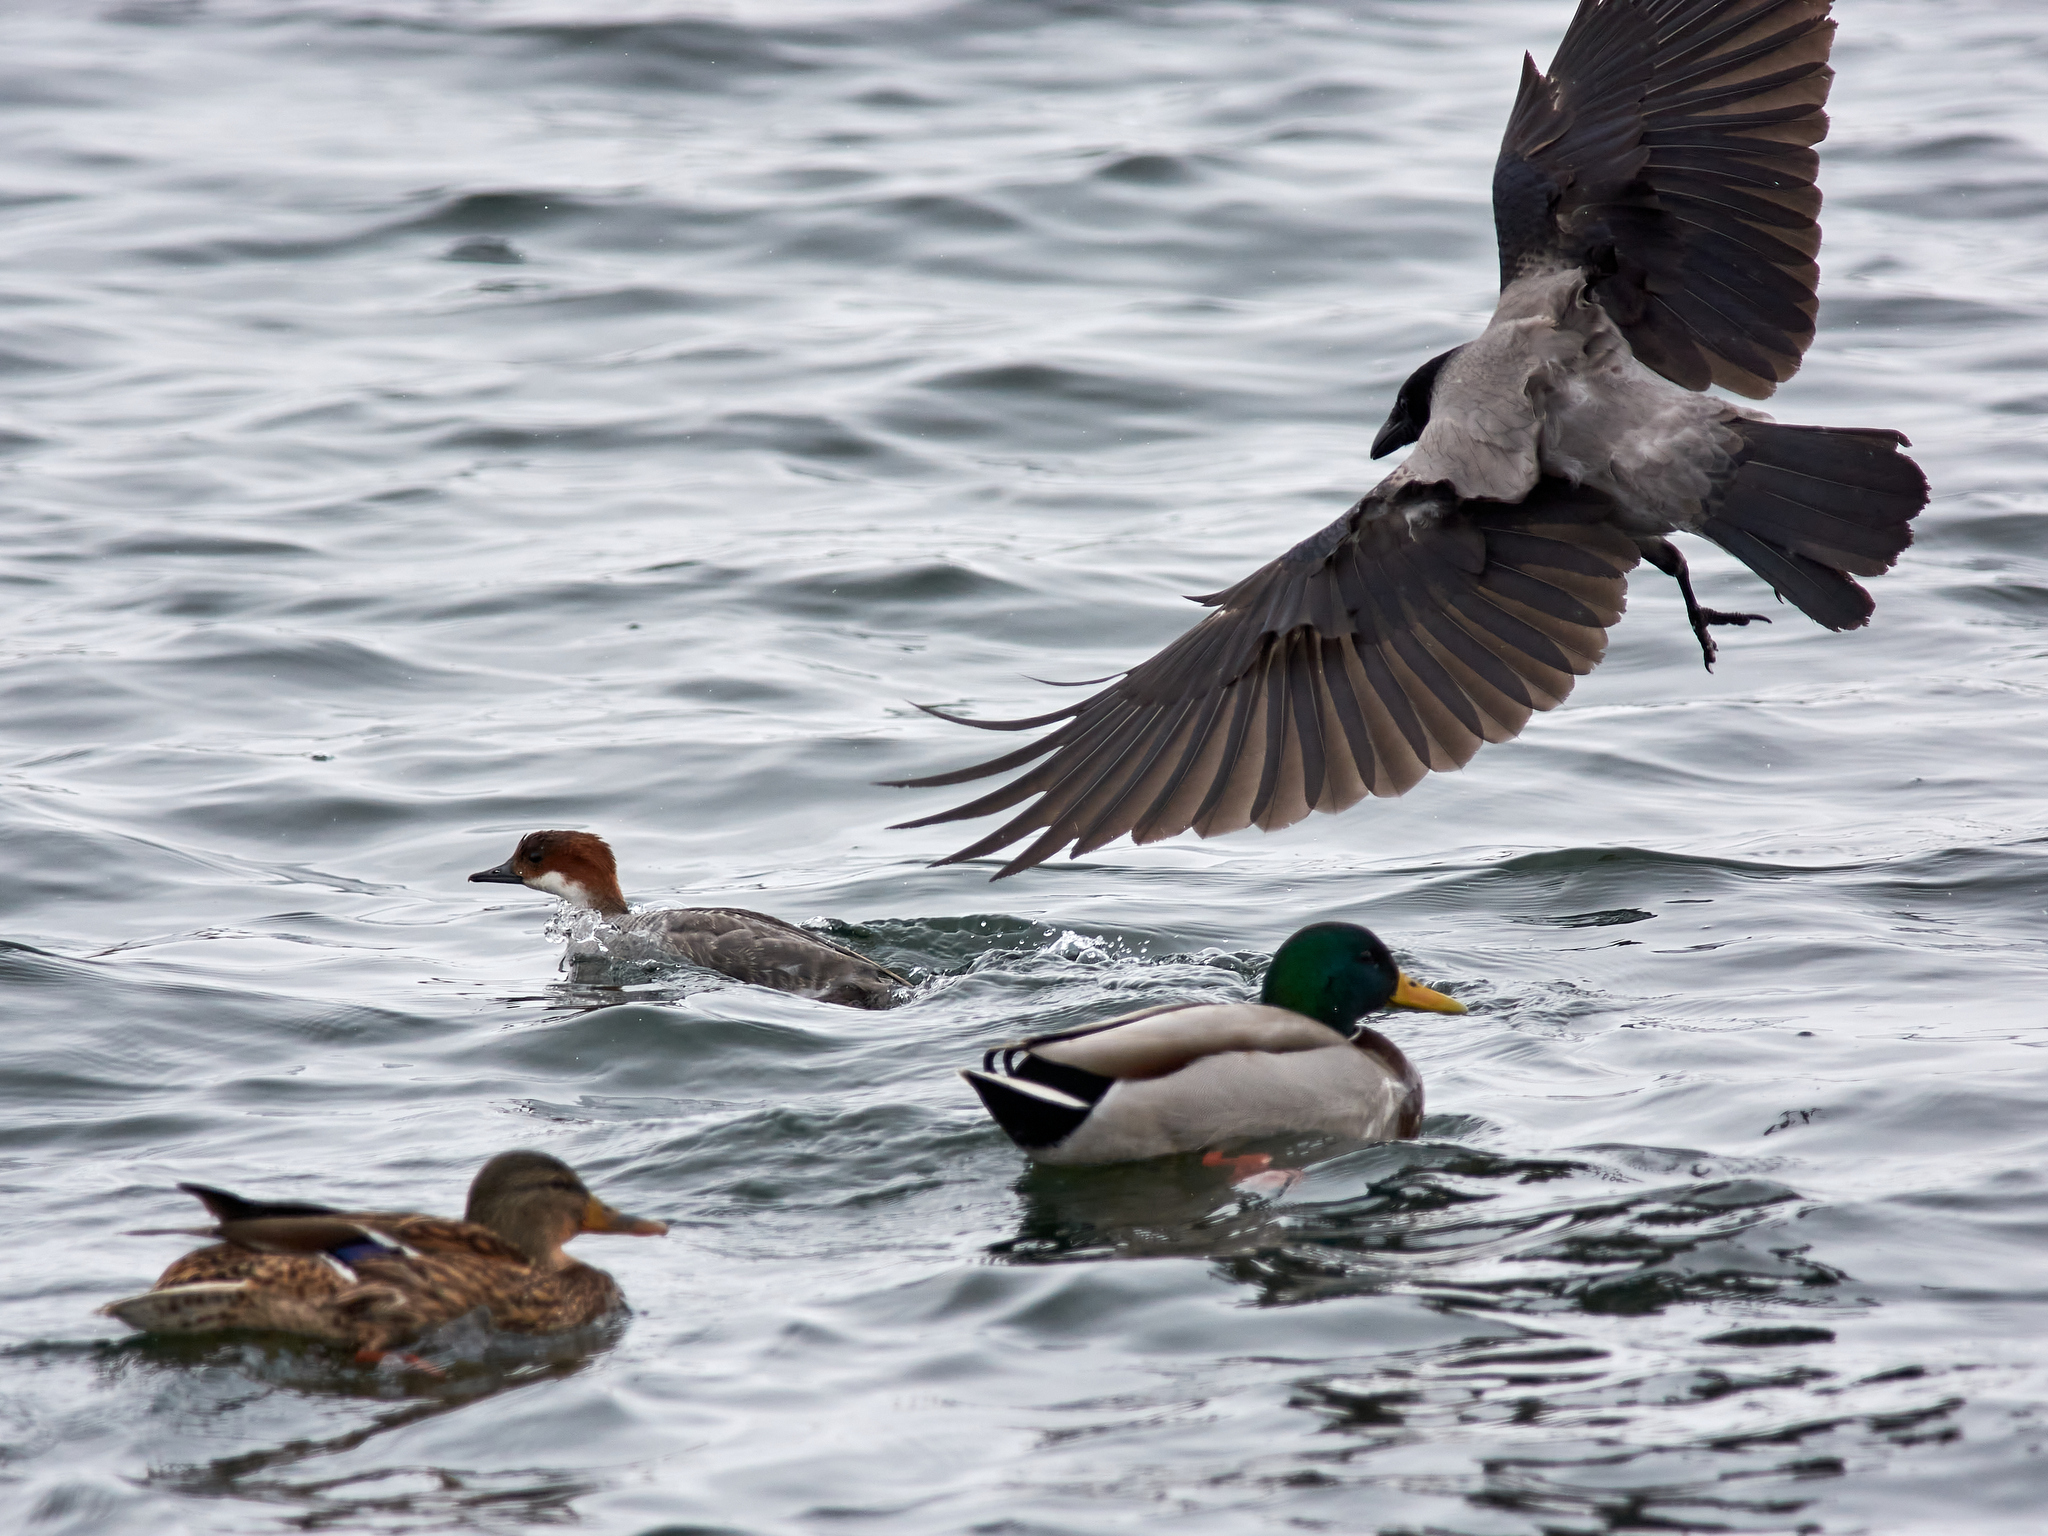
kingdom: Animalia
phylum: Chordata
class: Aves
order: Anseriformes
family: Anatidae
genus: Mergellus
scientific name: Mergellus albellus
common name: Smew
